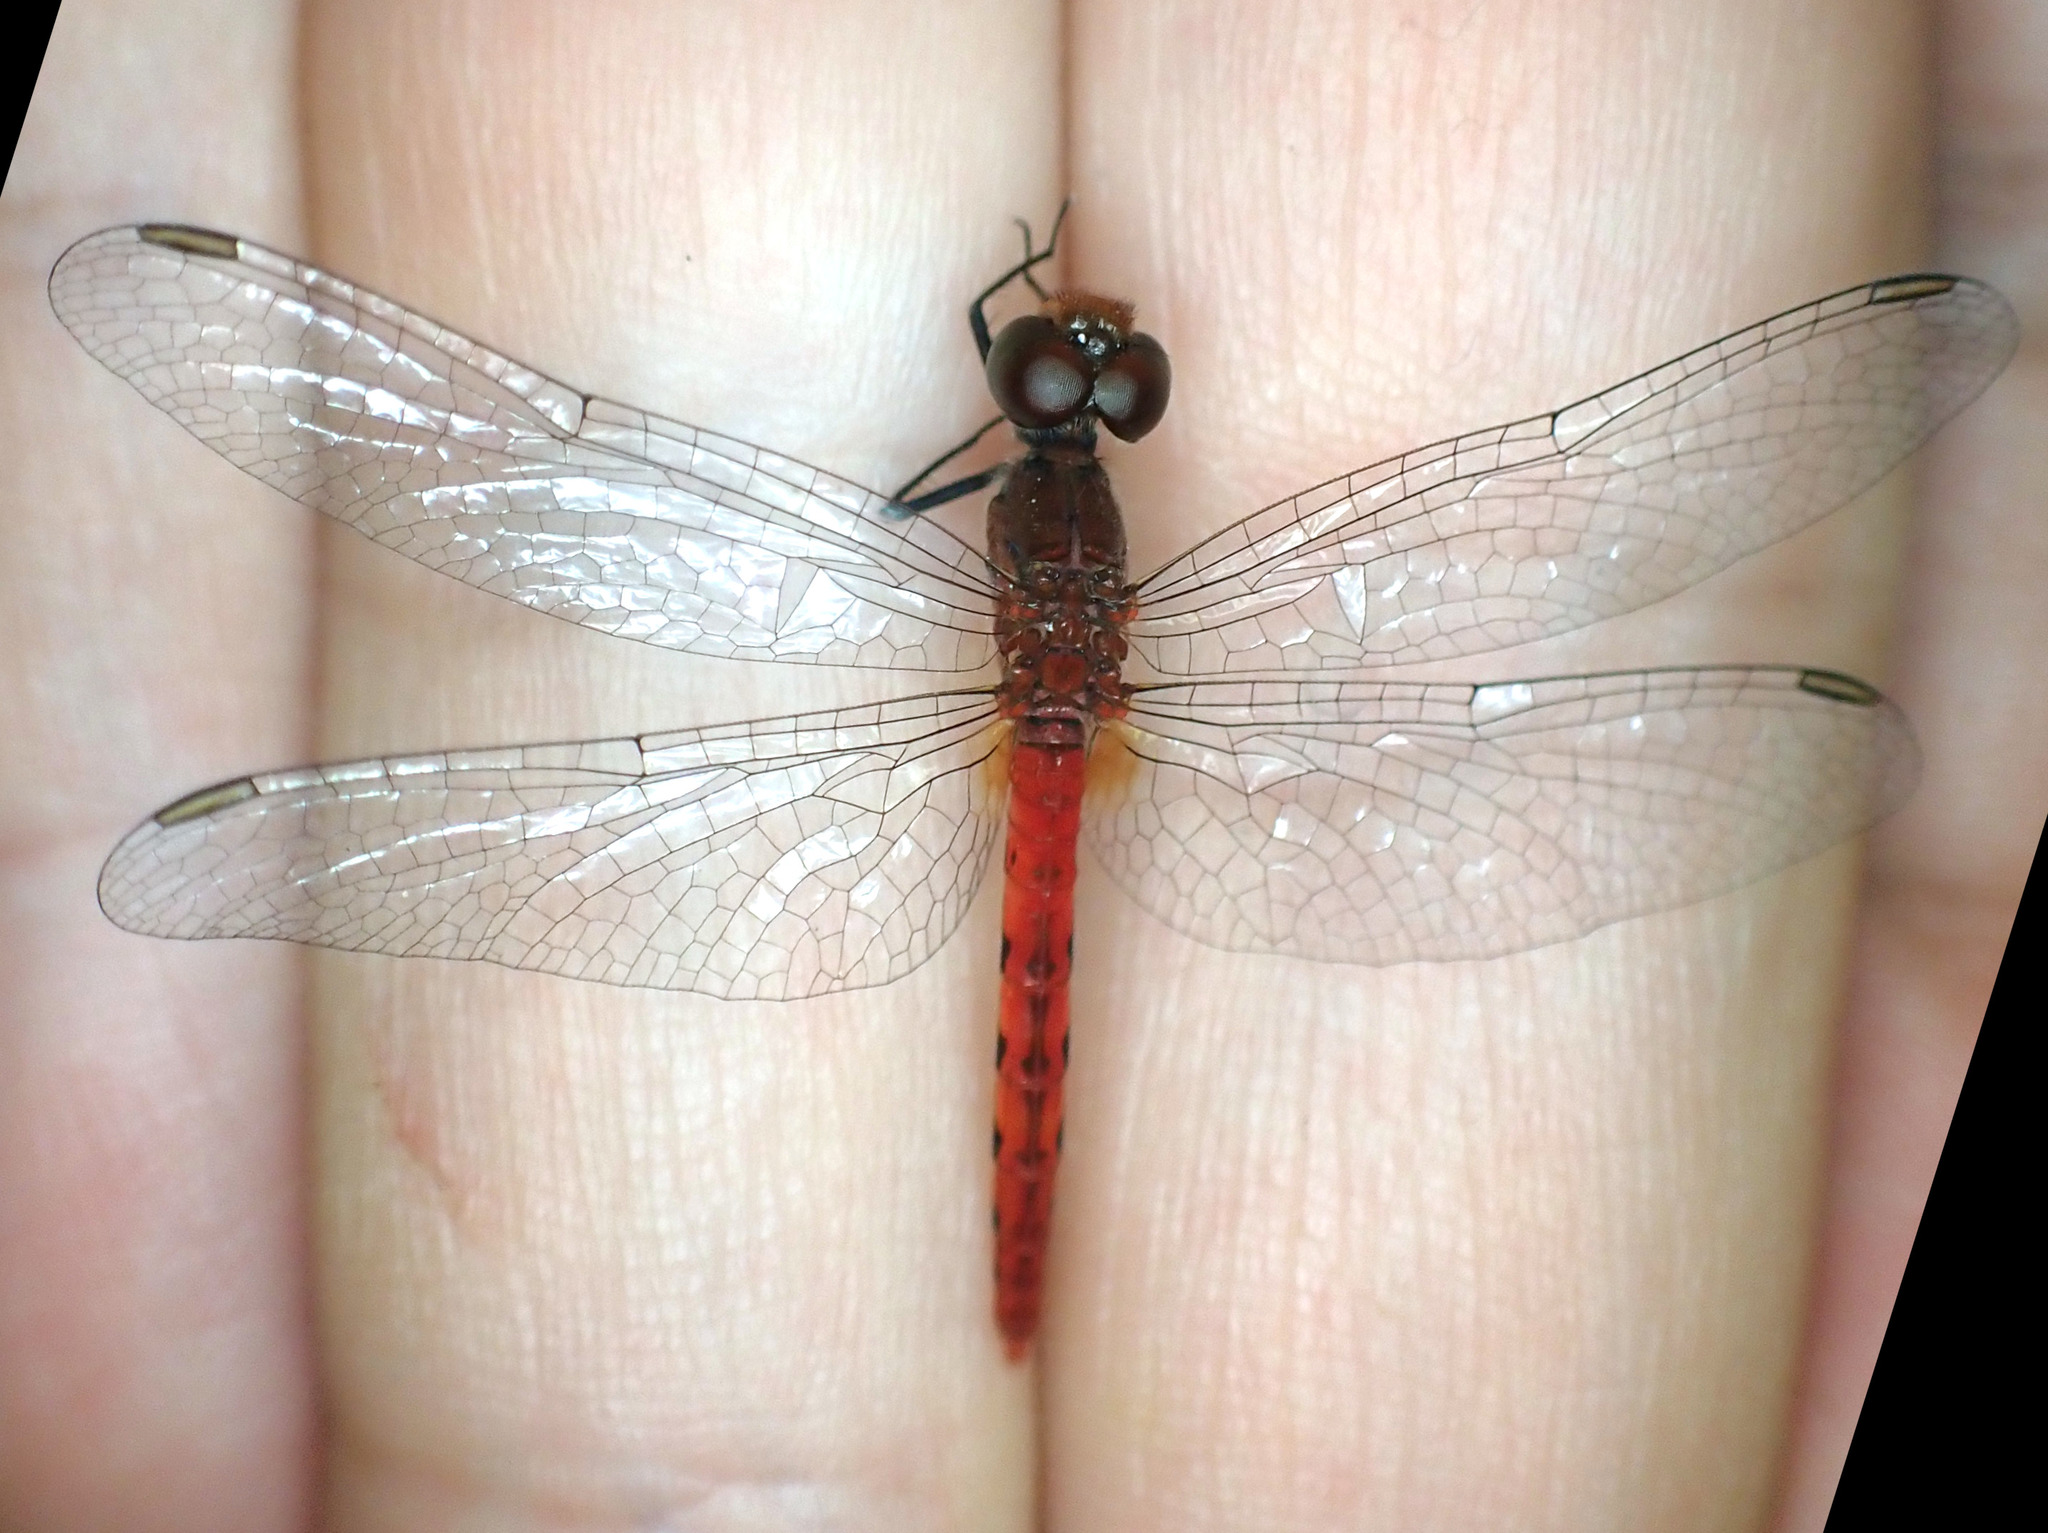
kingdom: Animalia
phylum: Arthropoda
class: Insecta
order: Odonata
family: Libellulidae
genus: Nannodiplax
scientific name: Nannodiplax rubra
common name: Pygmy percher
